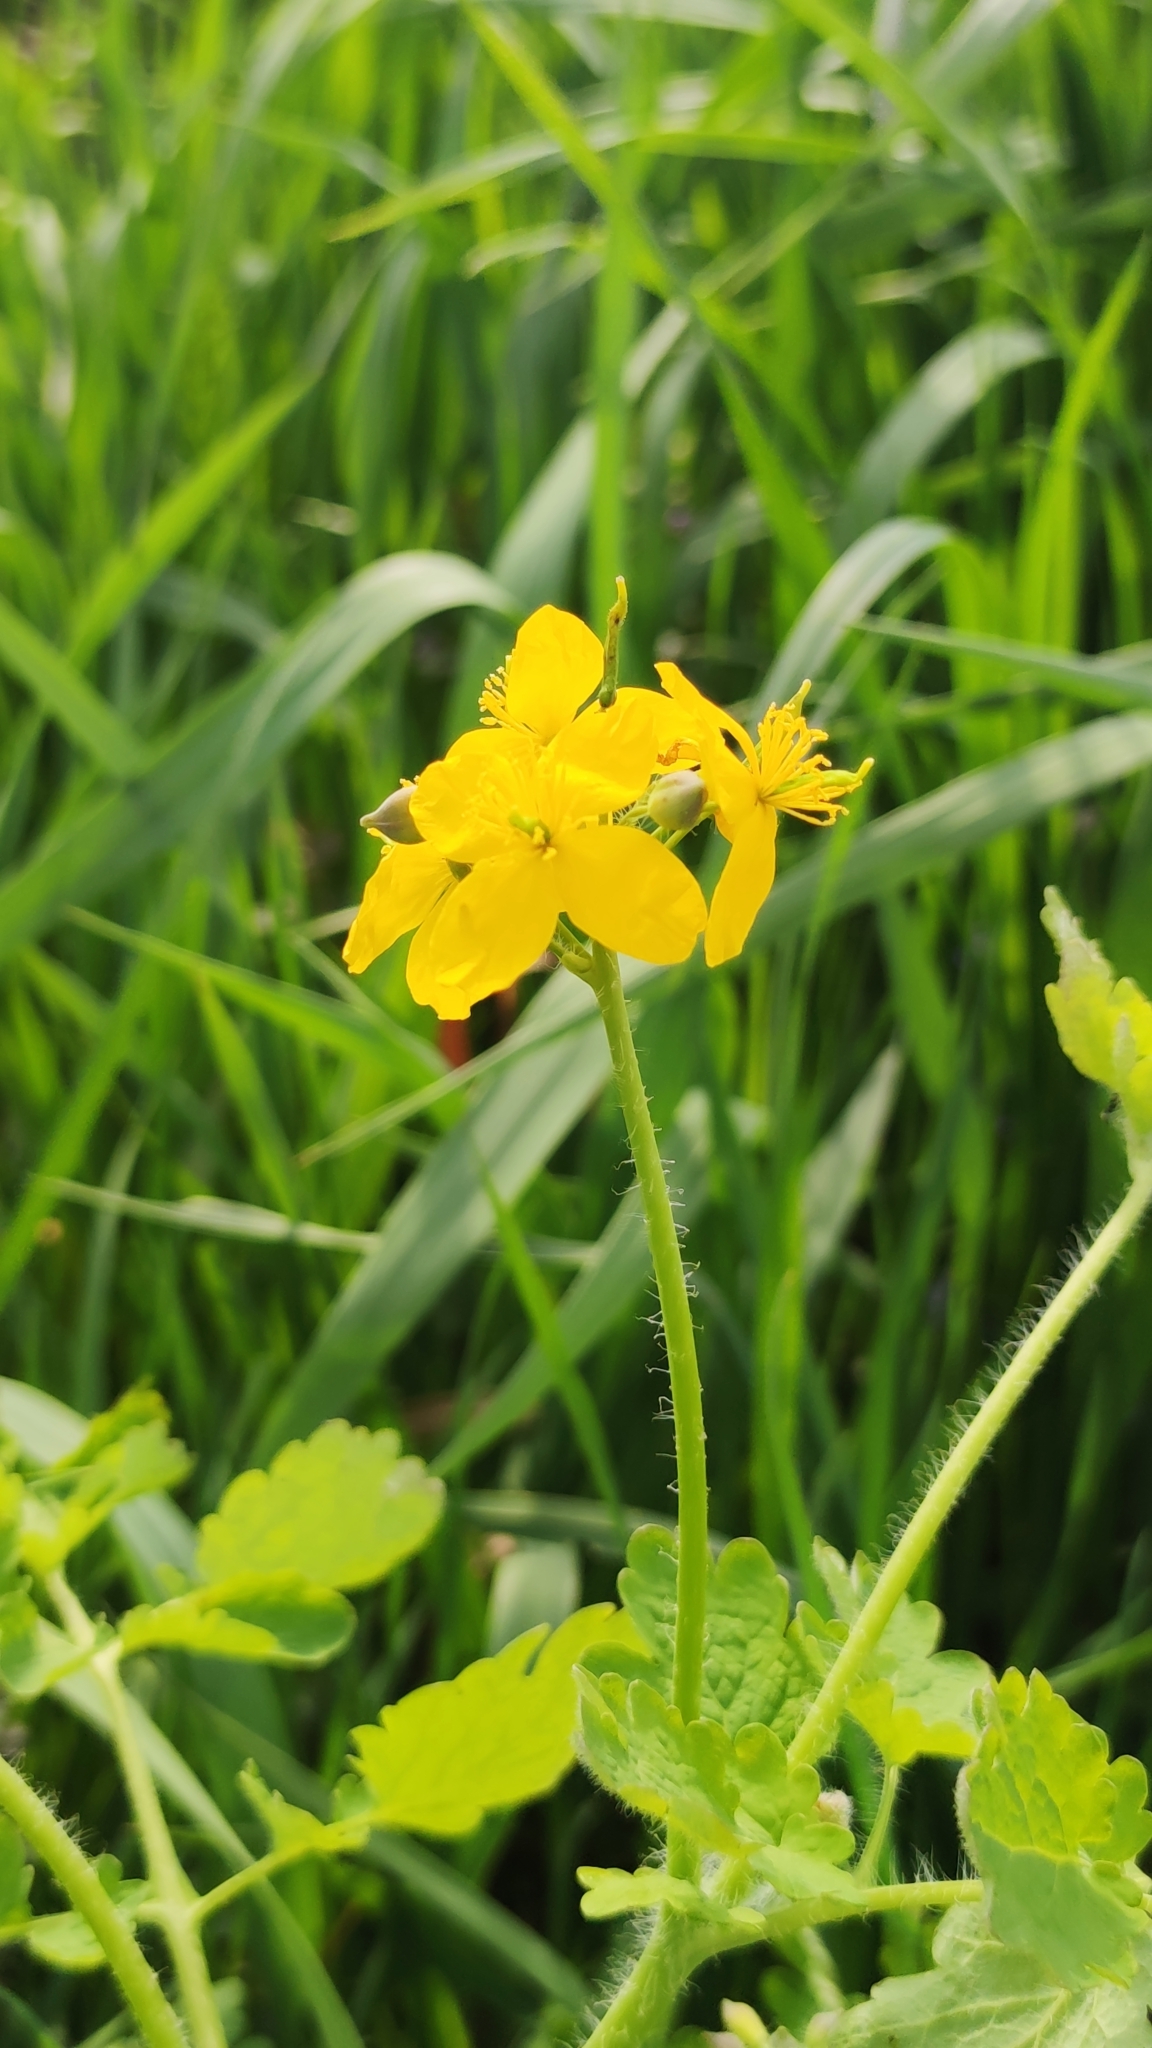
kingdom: Plantae
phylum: Tracheophyta
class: Magnoliopsida
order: Ranunculales
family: Papaveraceae
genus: Chelidonium
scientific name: Chelidonium majus
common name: Greater celandine
